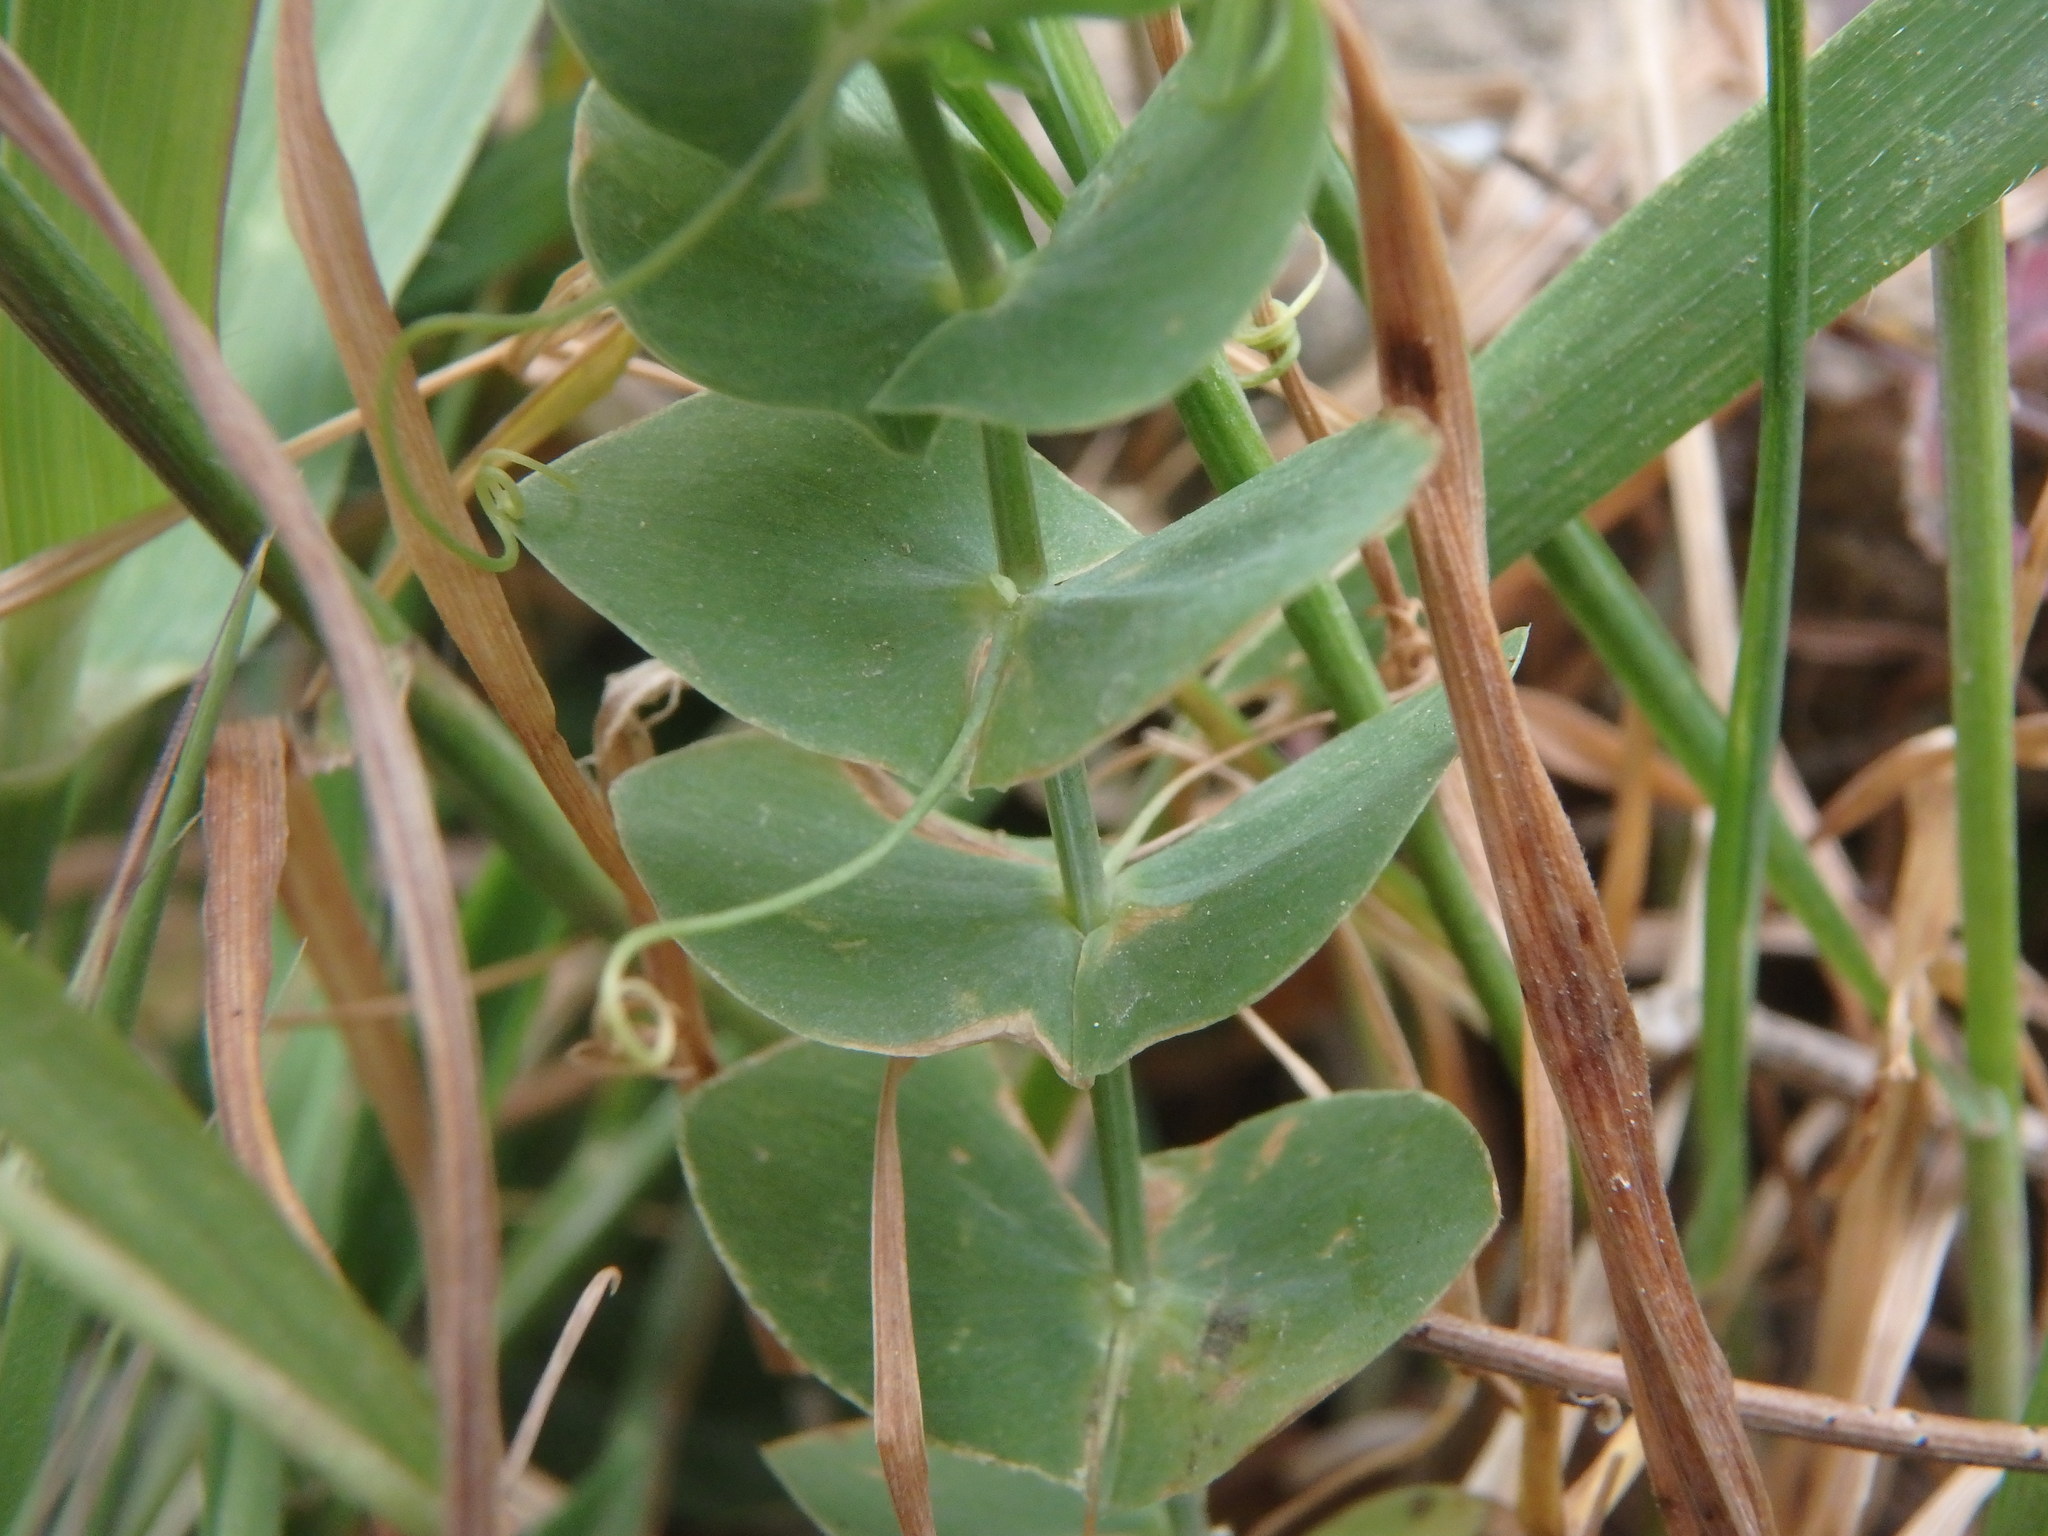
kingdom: Plantae
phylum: Tracheophyta
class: Magnoliopsida
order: Fabales
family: Fabaceae
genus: Lathyrus
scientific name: Lathyrus aphaca
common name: Yellow vetchling
